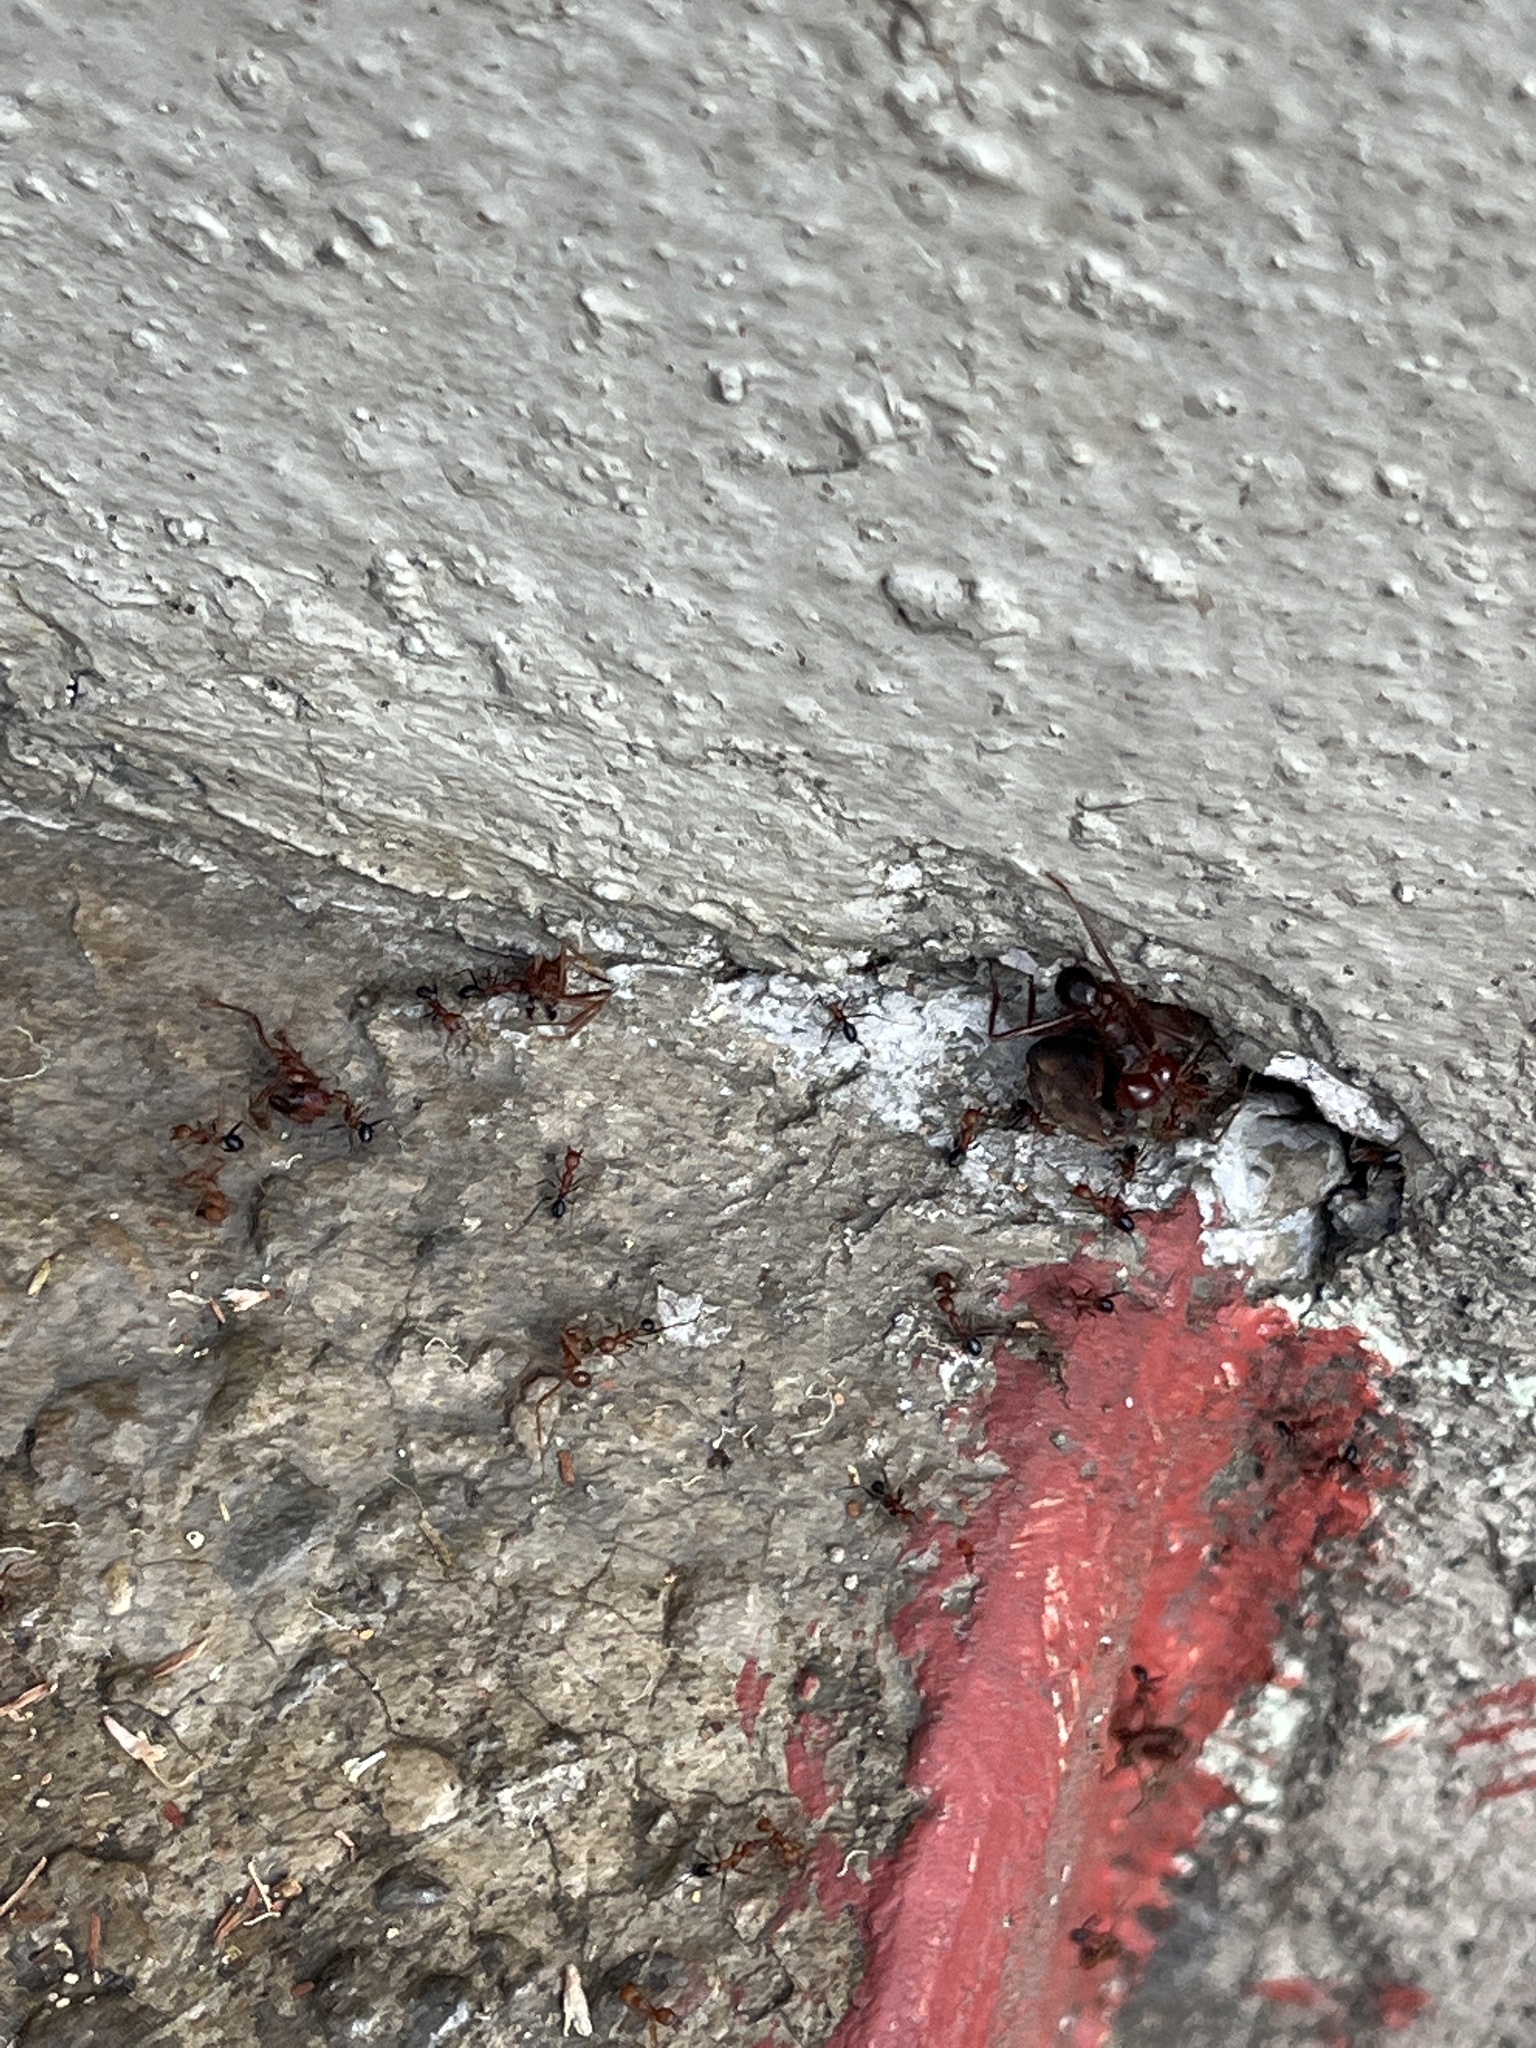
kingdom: Animalia
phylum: Arthropoda
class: Insecta
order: Hymenoptera
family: Formicidae
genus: Atta
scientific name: Atta mexicana
